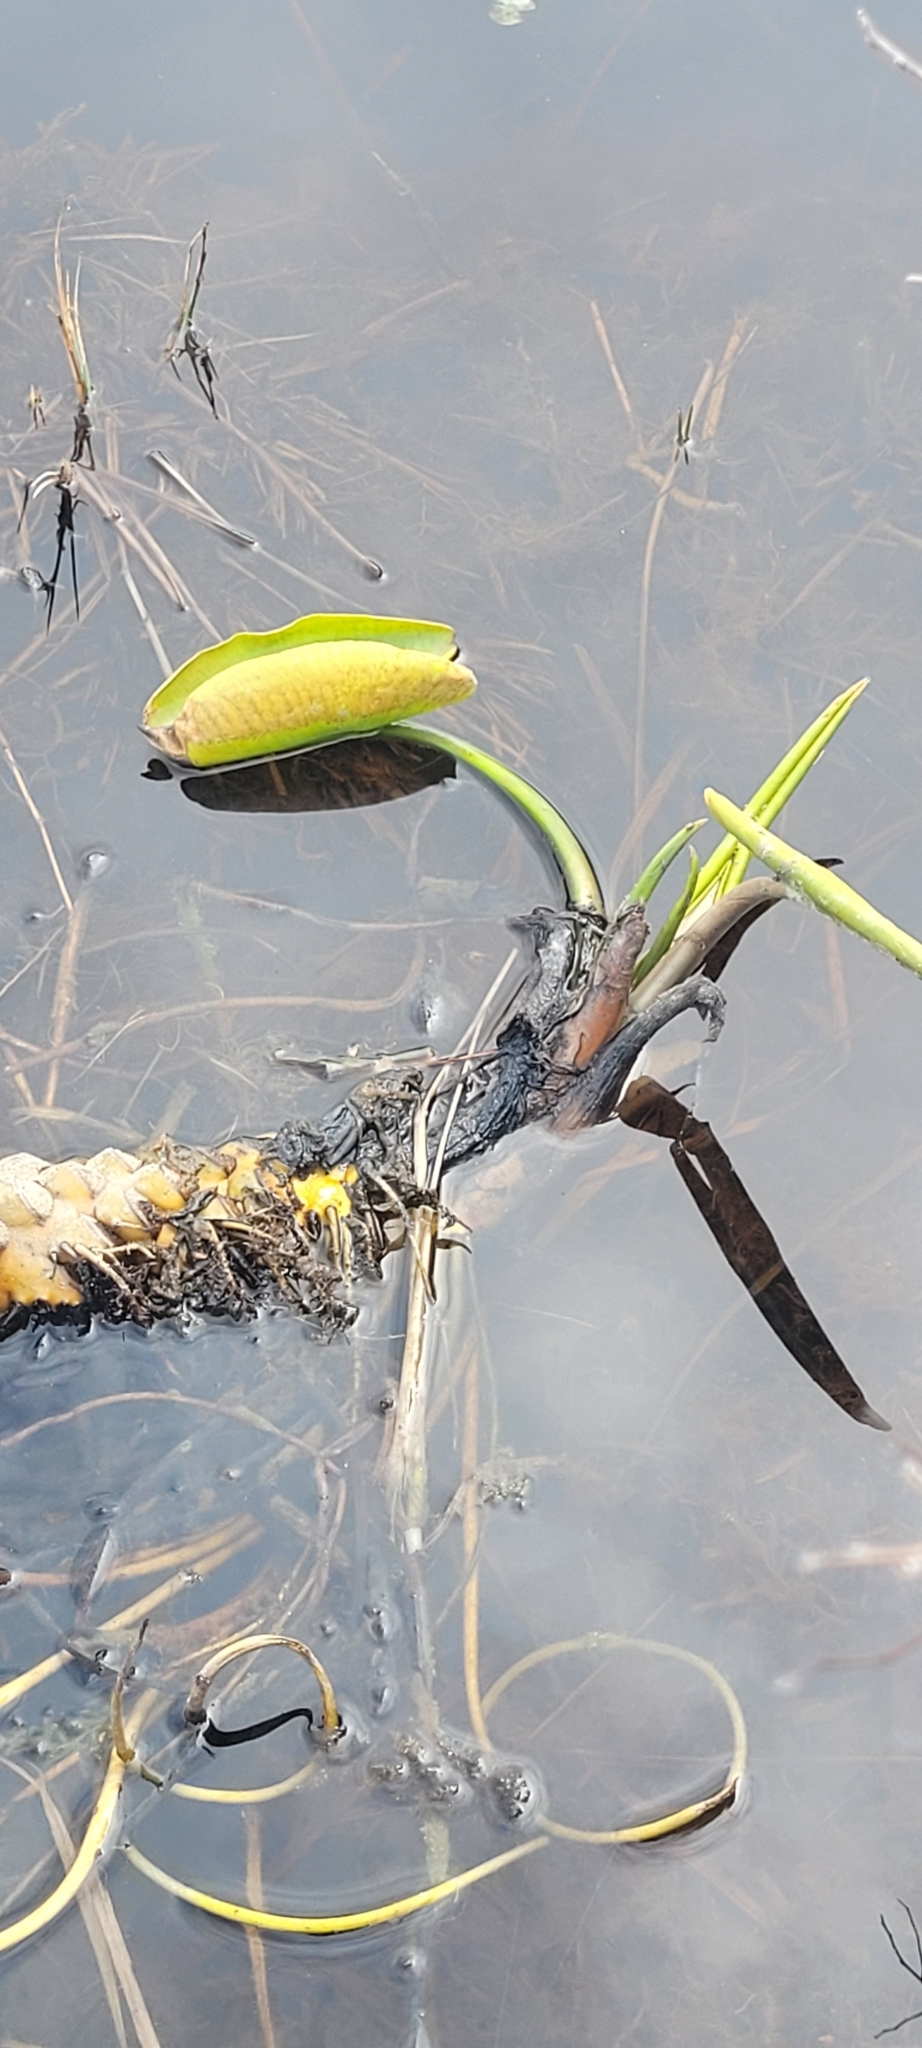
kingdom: Plantae
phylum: Tracheophyta
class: Magnoliopsida
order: Nymphaeales
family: Nymphaeaceae
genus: Nuphar
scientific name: Nuphar polysepala
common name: Rocky mountain cow-lily
